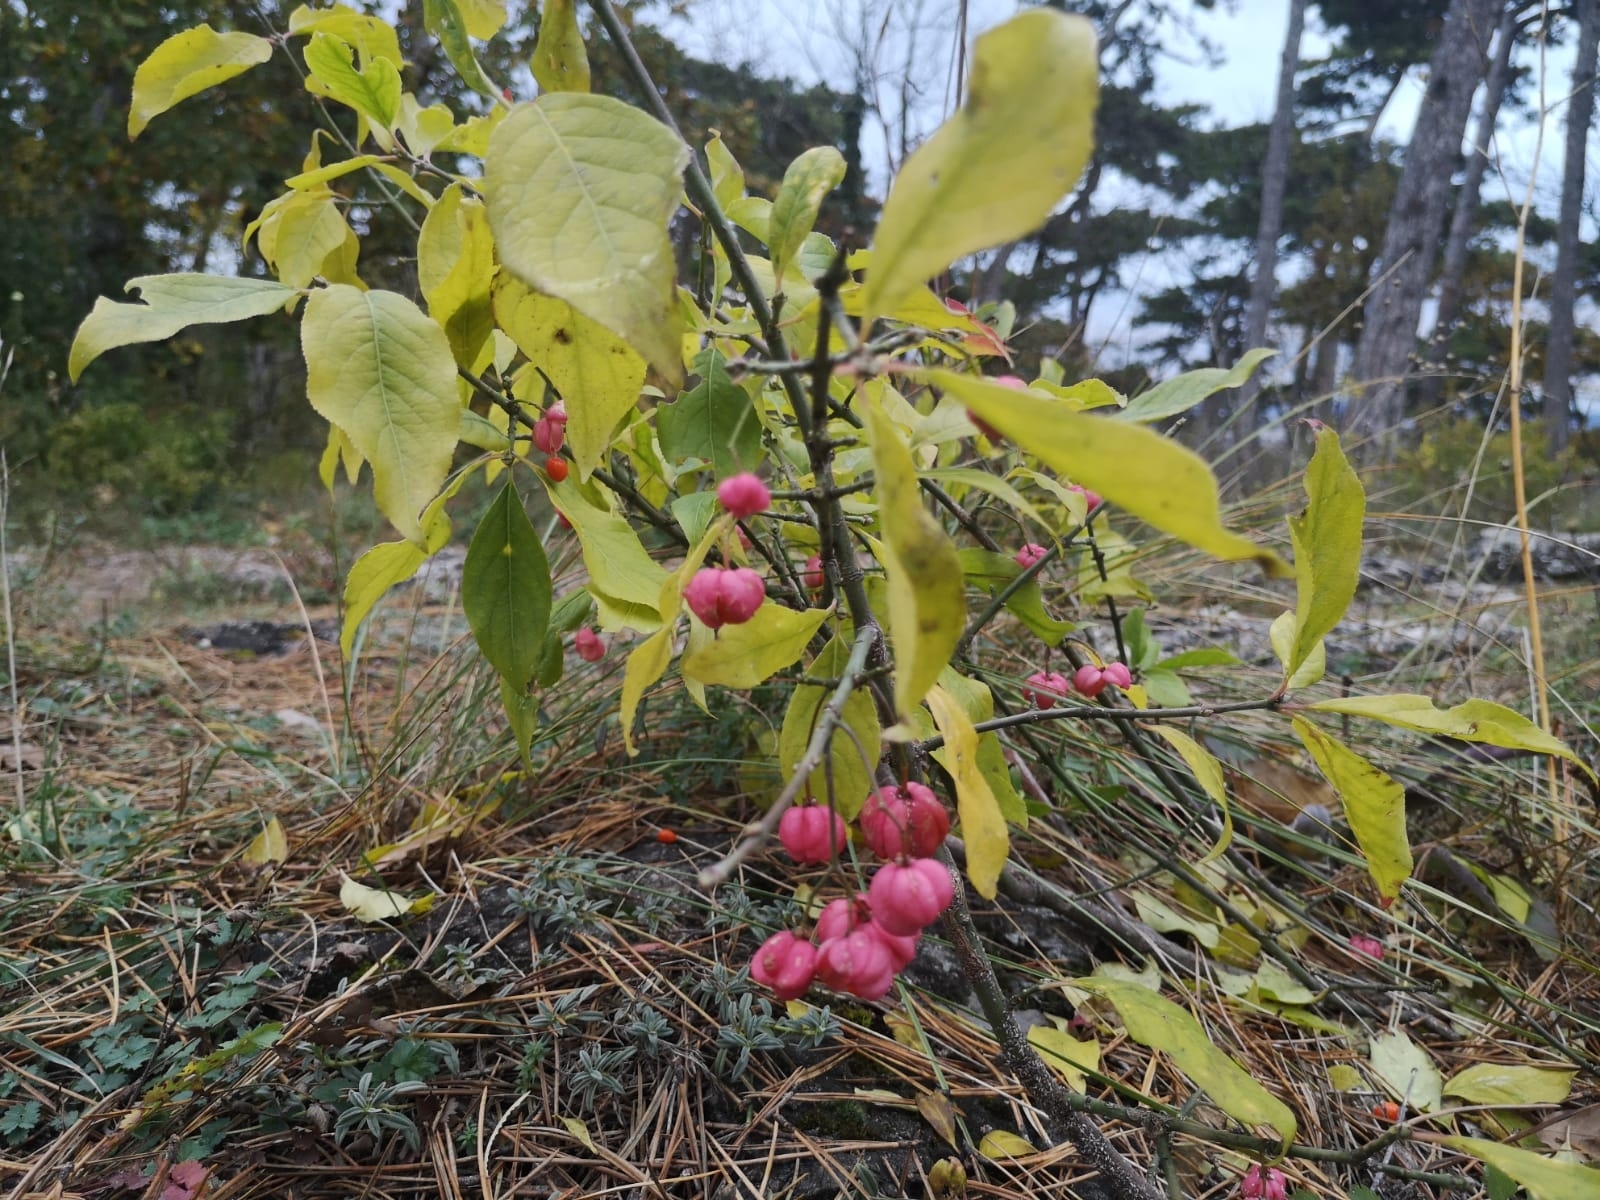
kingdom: Plantae
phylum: Tracheophyta
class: Magnoliopsida
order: Celastrales
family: Celastraceae
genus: Euonymus
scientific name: Euonymus europaeus
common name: Spindle
